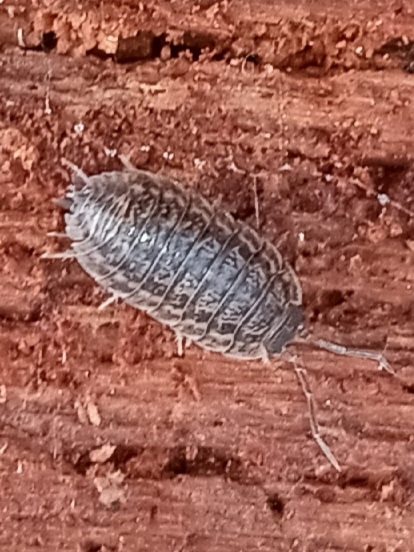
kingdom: Animalia
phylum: Arthropoda
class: Malacostraca
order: Isopoda
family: Trachelipodidae
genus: Trachelipus
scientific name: Trachelipus rathkii
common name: Isopod
